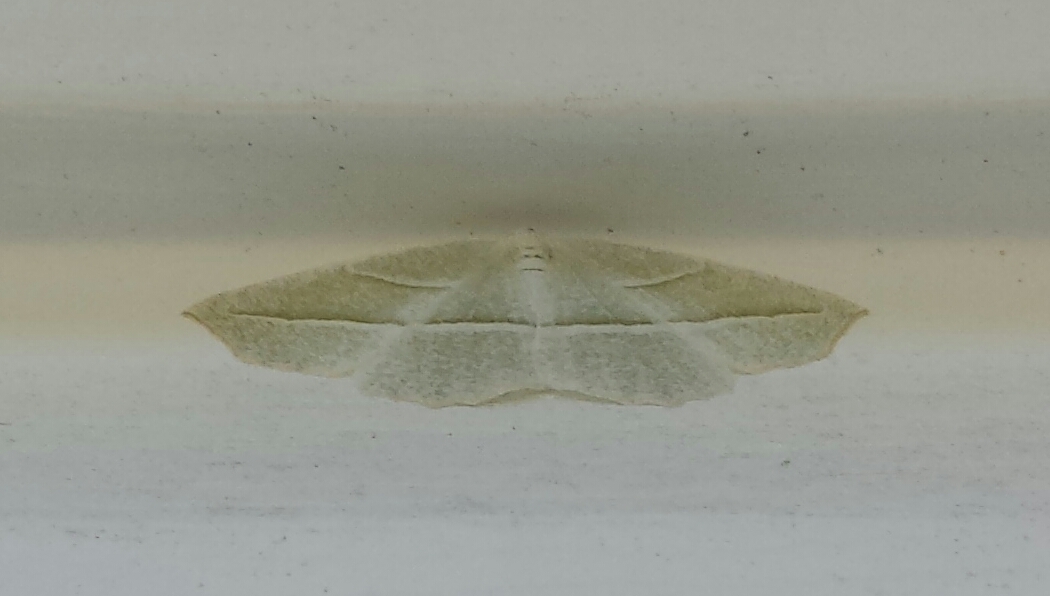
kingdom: Animalia
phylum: Arthropoda
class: Insecta
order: Lepidoptera
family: Geometridae
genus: Campaea
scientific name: Campaea perlata
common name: Fringed looper
